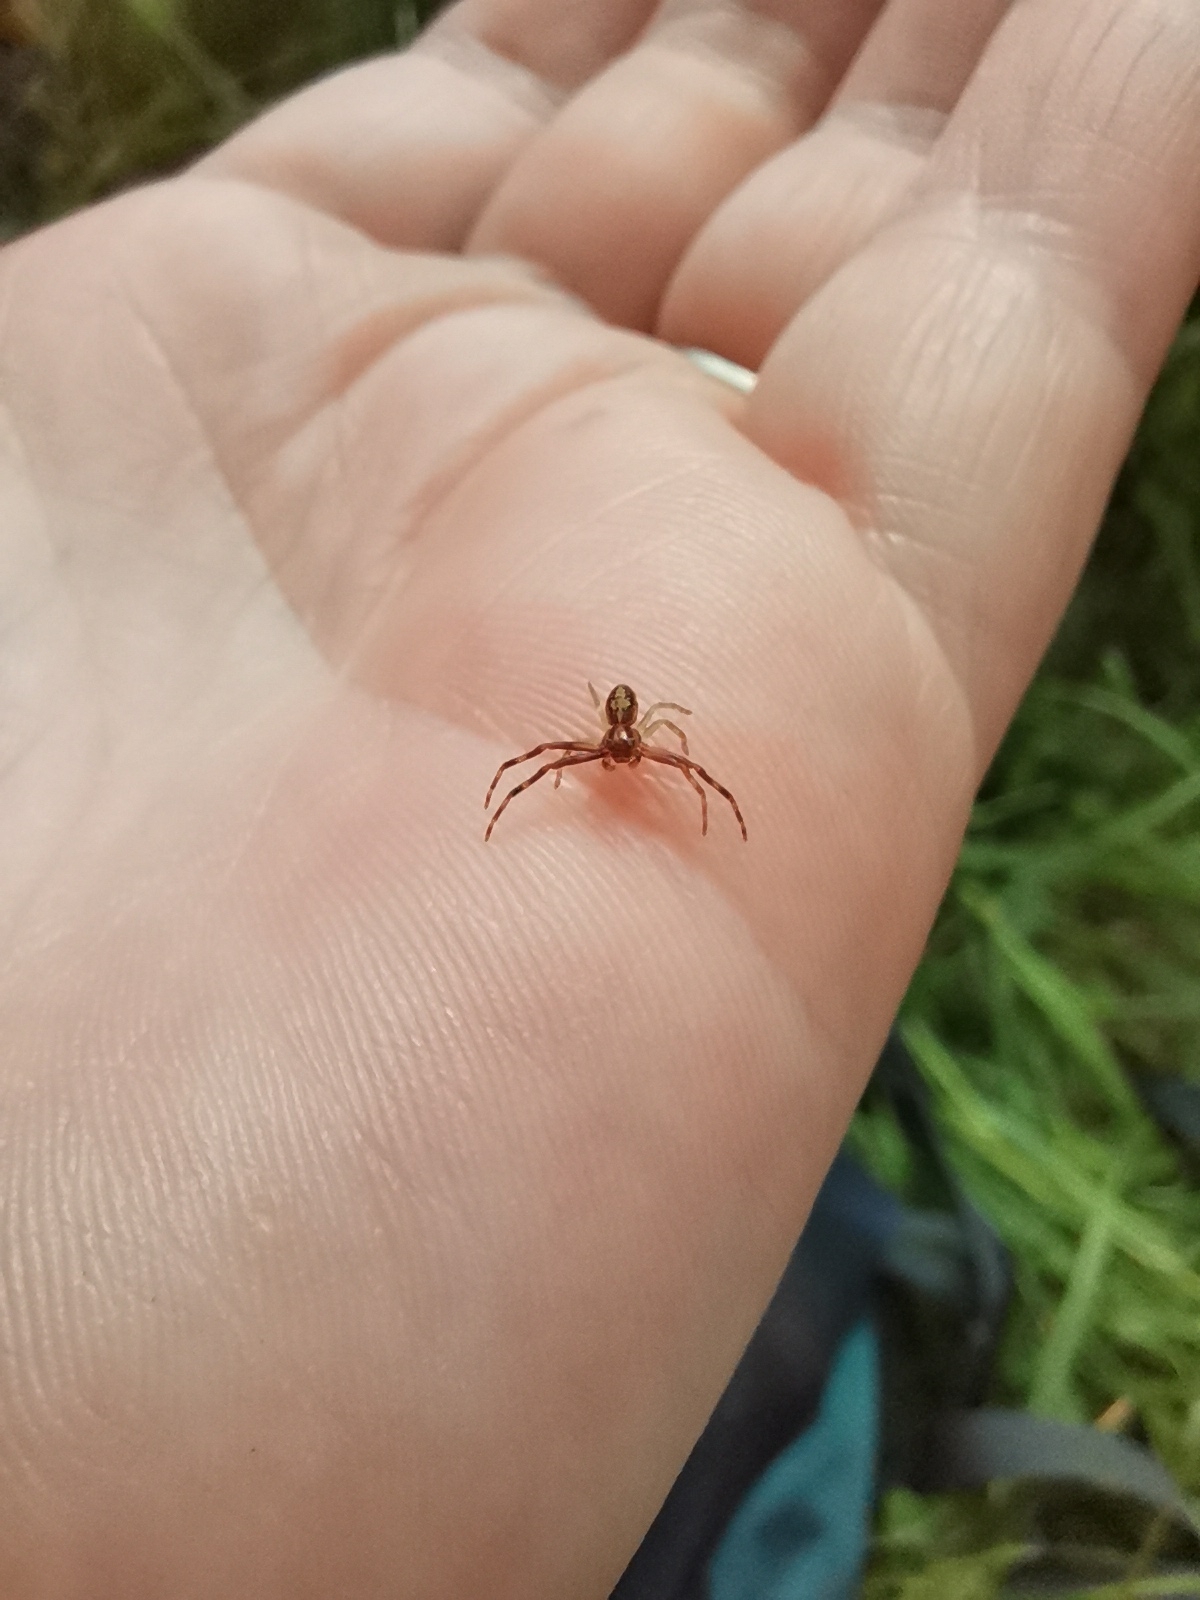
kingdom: Animalia
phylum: Arthropoda
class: Arachnida
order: Araneae
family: Thomisidae
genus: Diaea
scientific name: Diaea ambara
